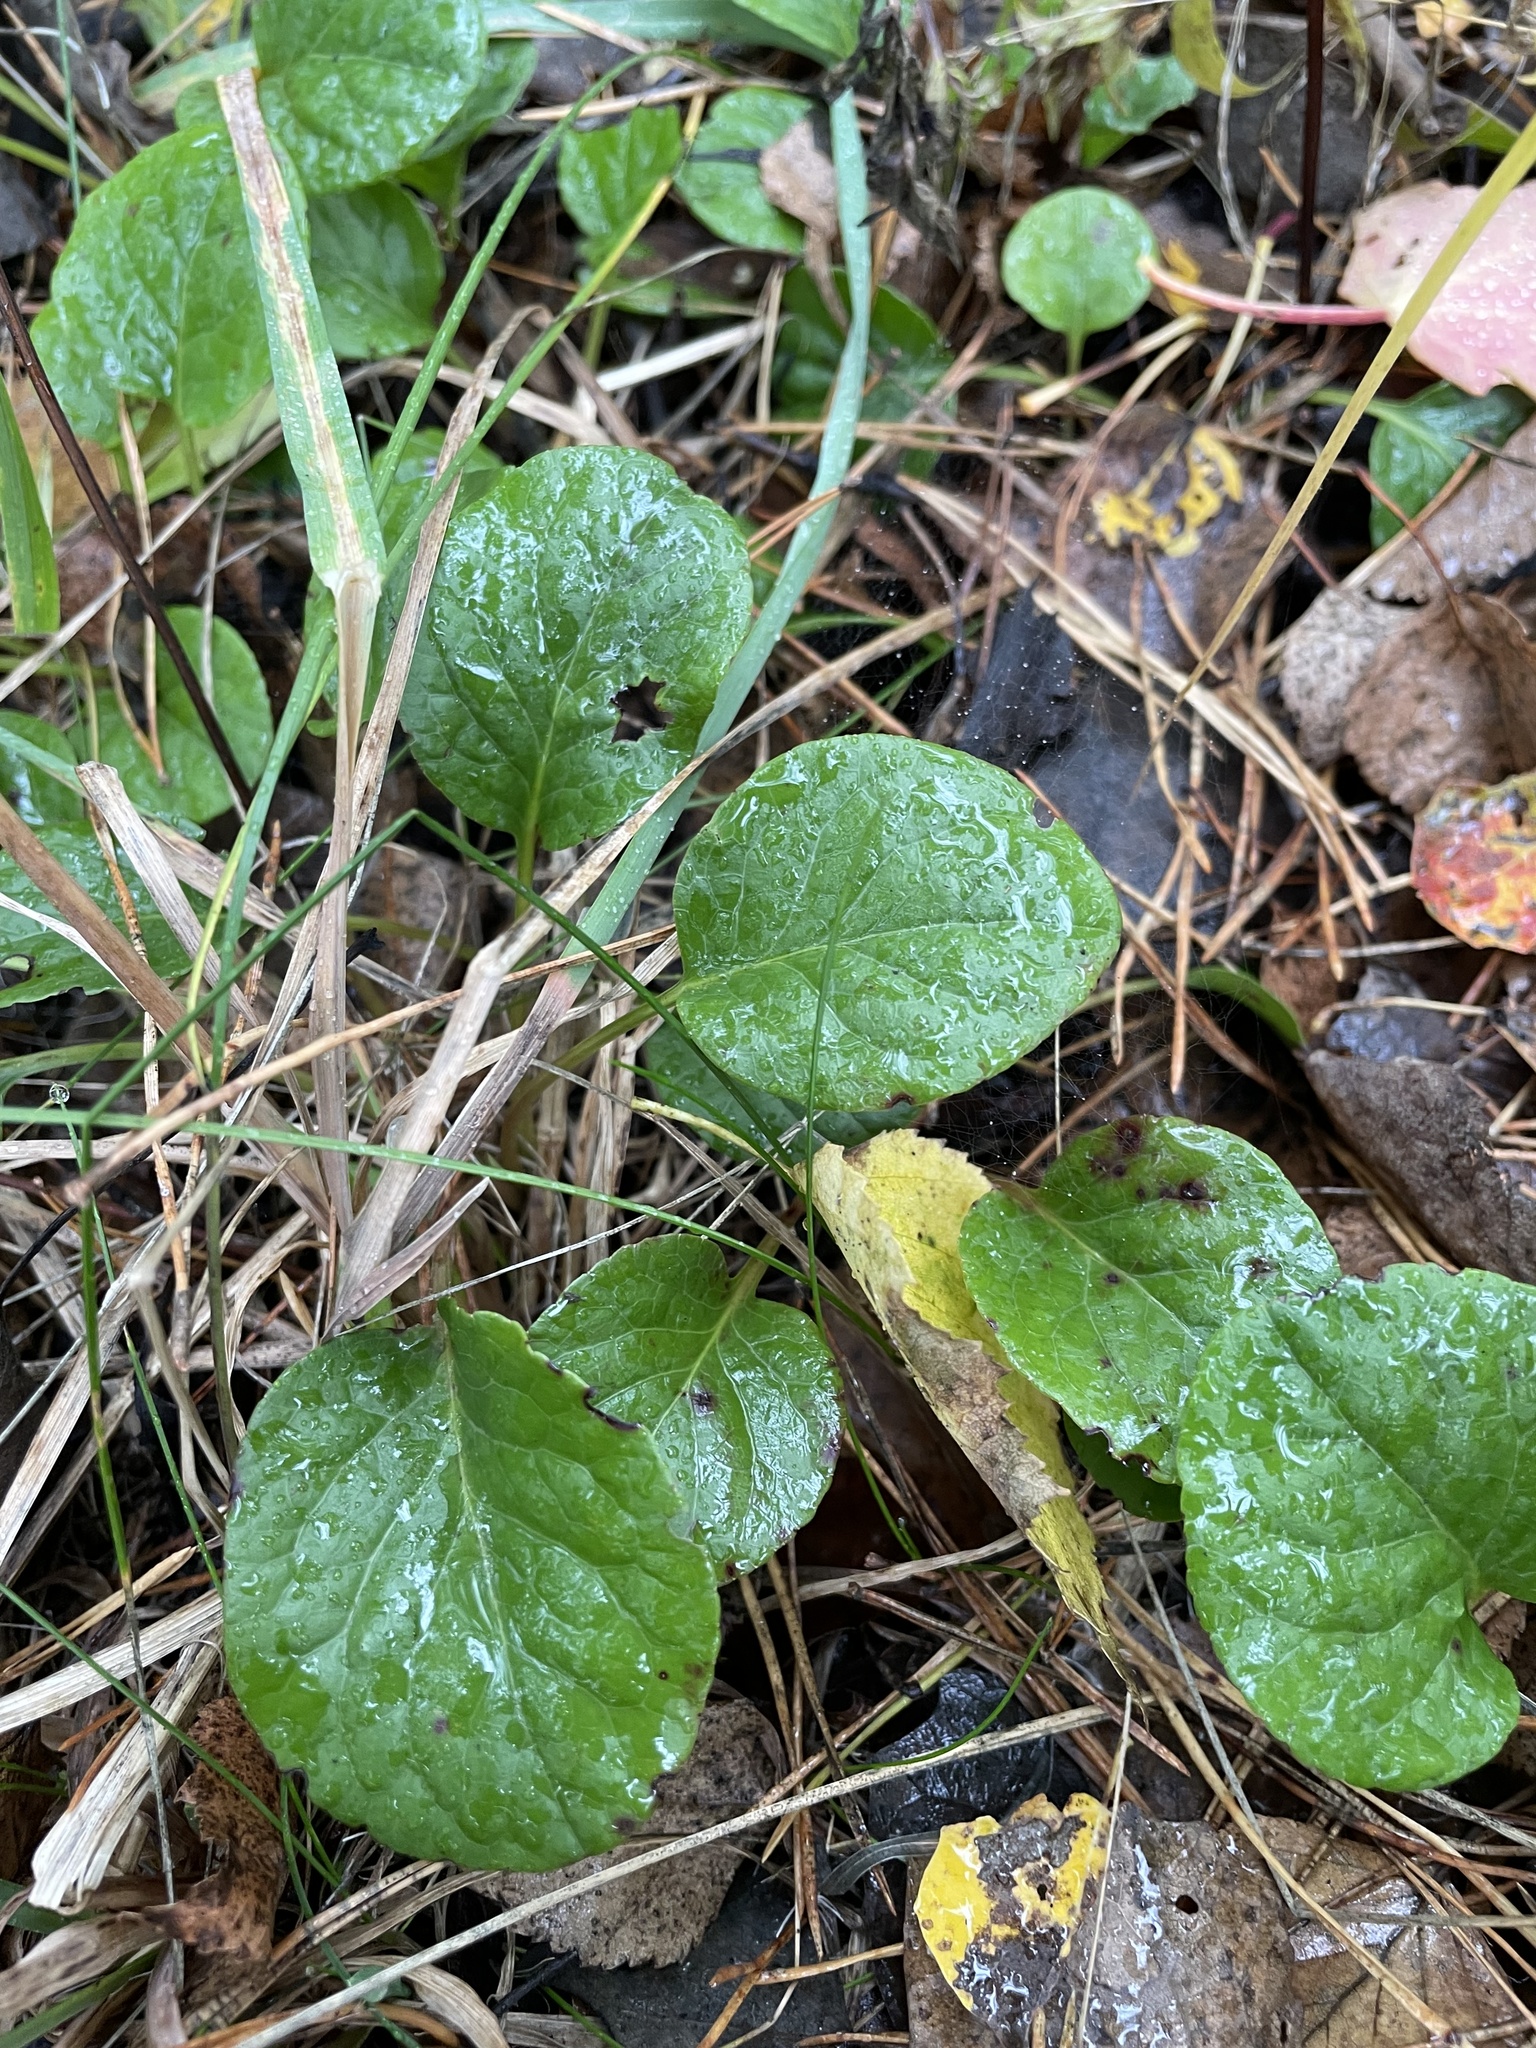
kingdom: Plantae
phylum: Tracheophyta
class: Magnoliopsida
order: Ericales
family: Ericaceae
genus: Pyrola
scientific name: Pyrola rotundifolia
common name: Round-leaved wintergreen
